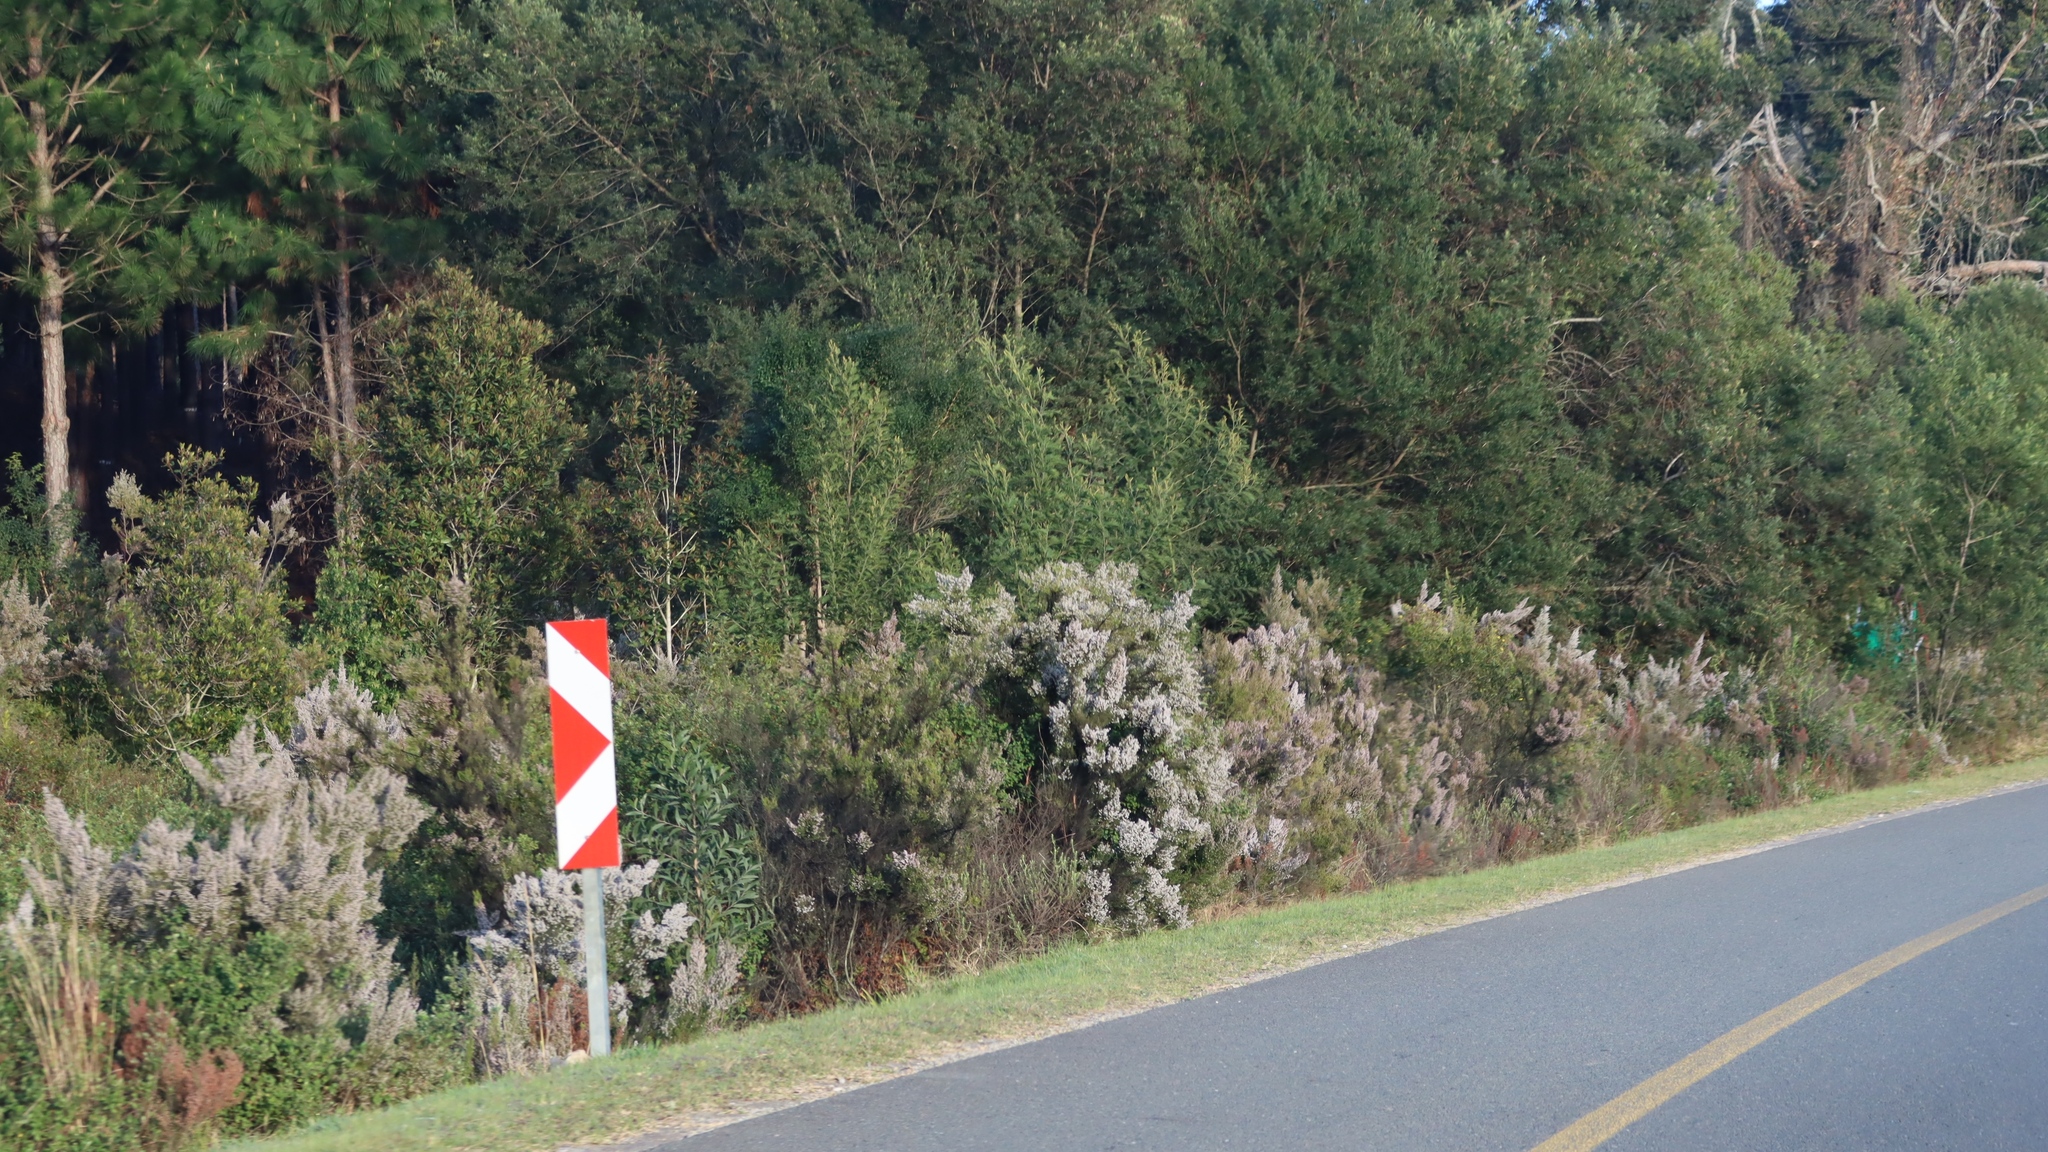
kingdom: Plantae
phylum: Tracheophyta
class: Magnoliopsida
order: Fabales
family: Fabaceae
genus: Acacia
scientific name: Acacia mearnsii
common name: Black wattle
